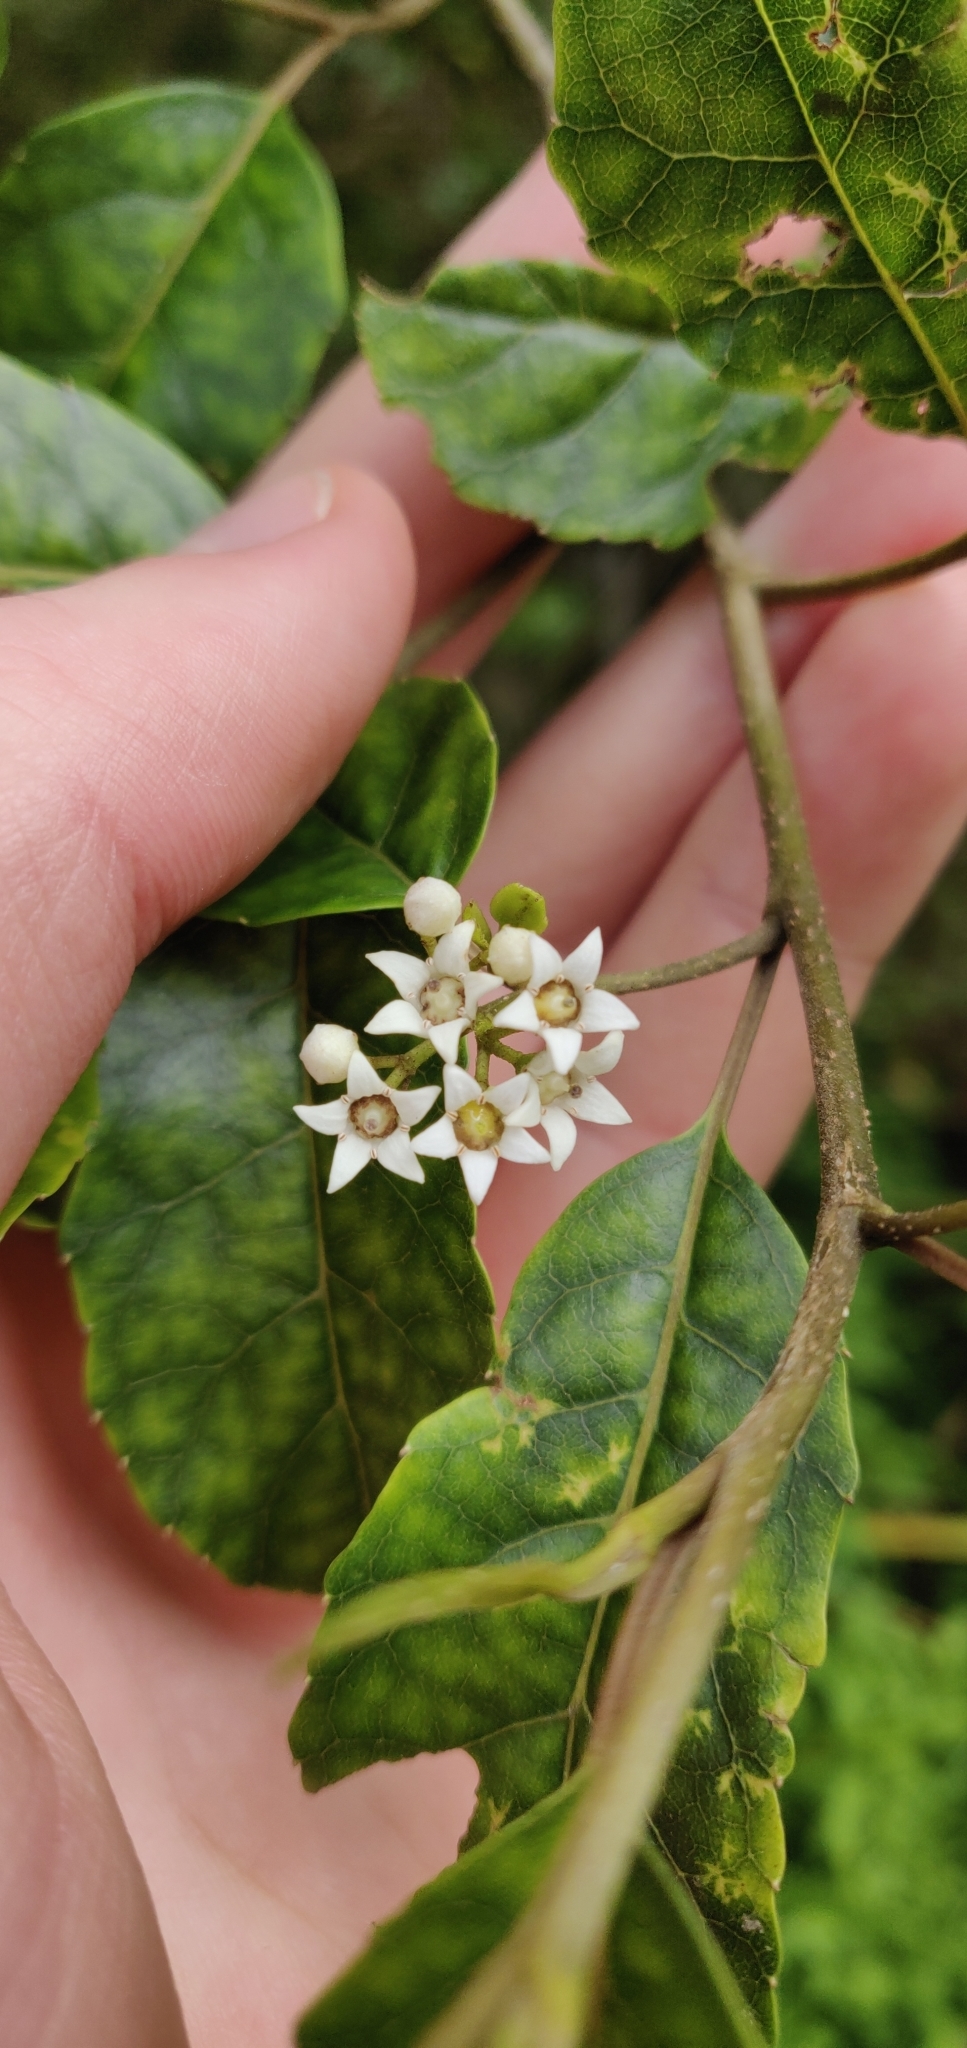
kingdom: Plantae
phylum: Tracheophyta
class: Magnoliopsida
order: Asterales
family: Rousseaceae
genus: Carpodetus
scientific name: Carpodetus serratus
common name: White mapau
